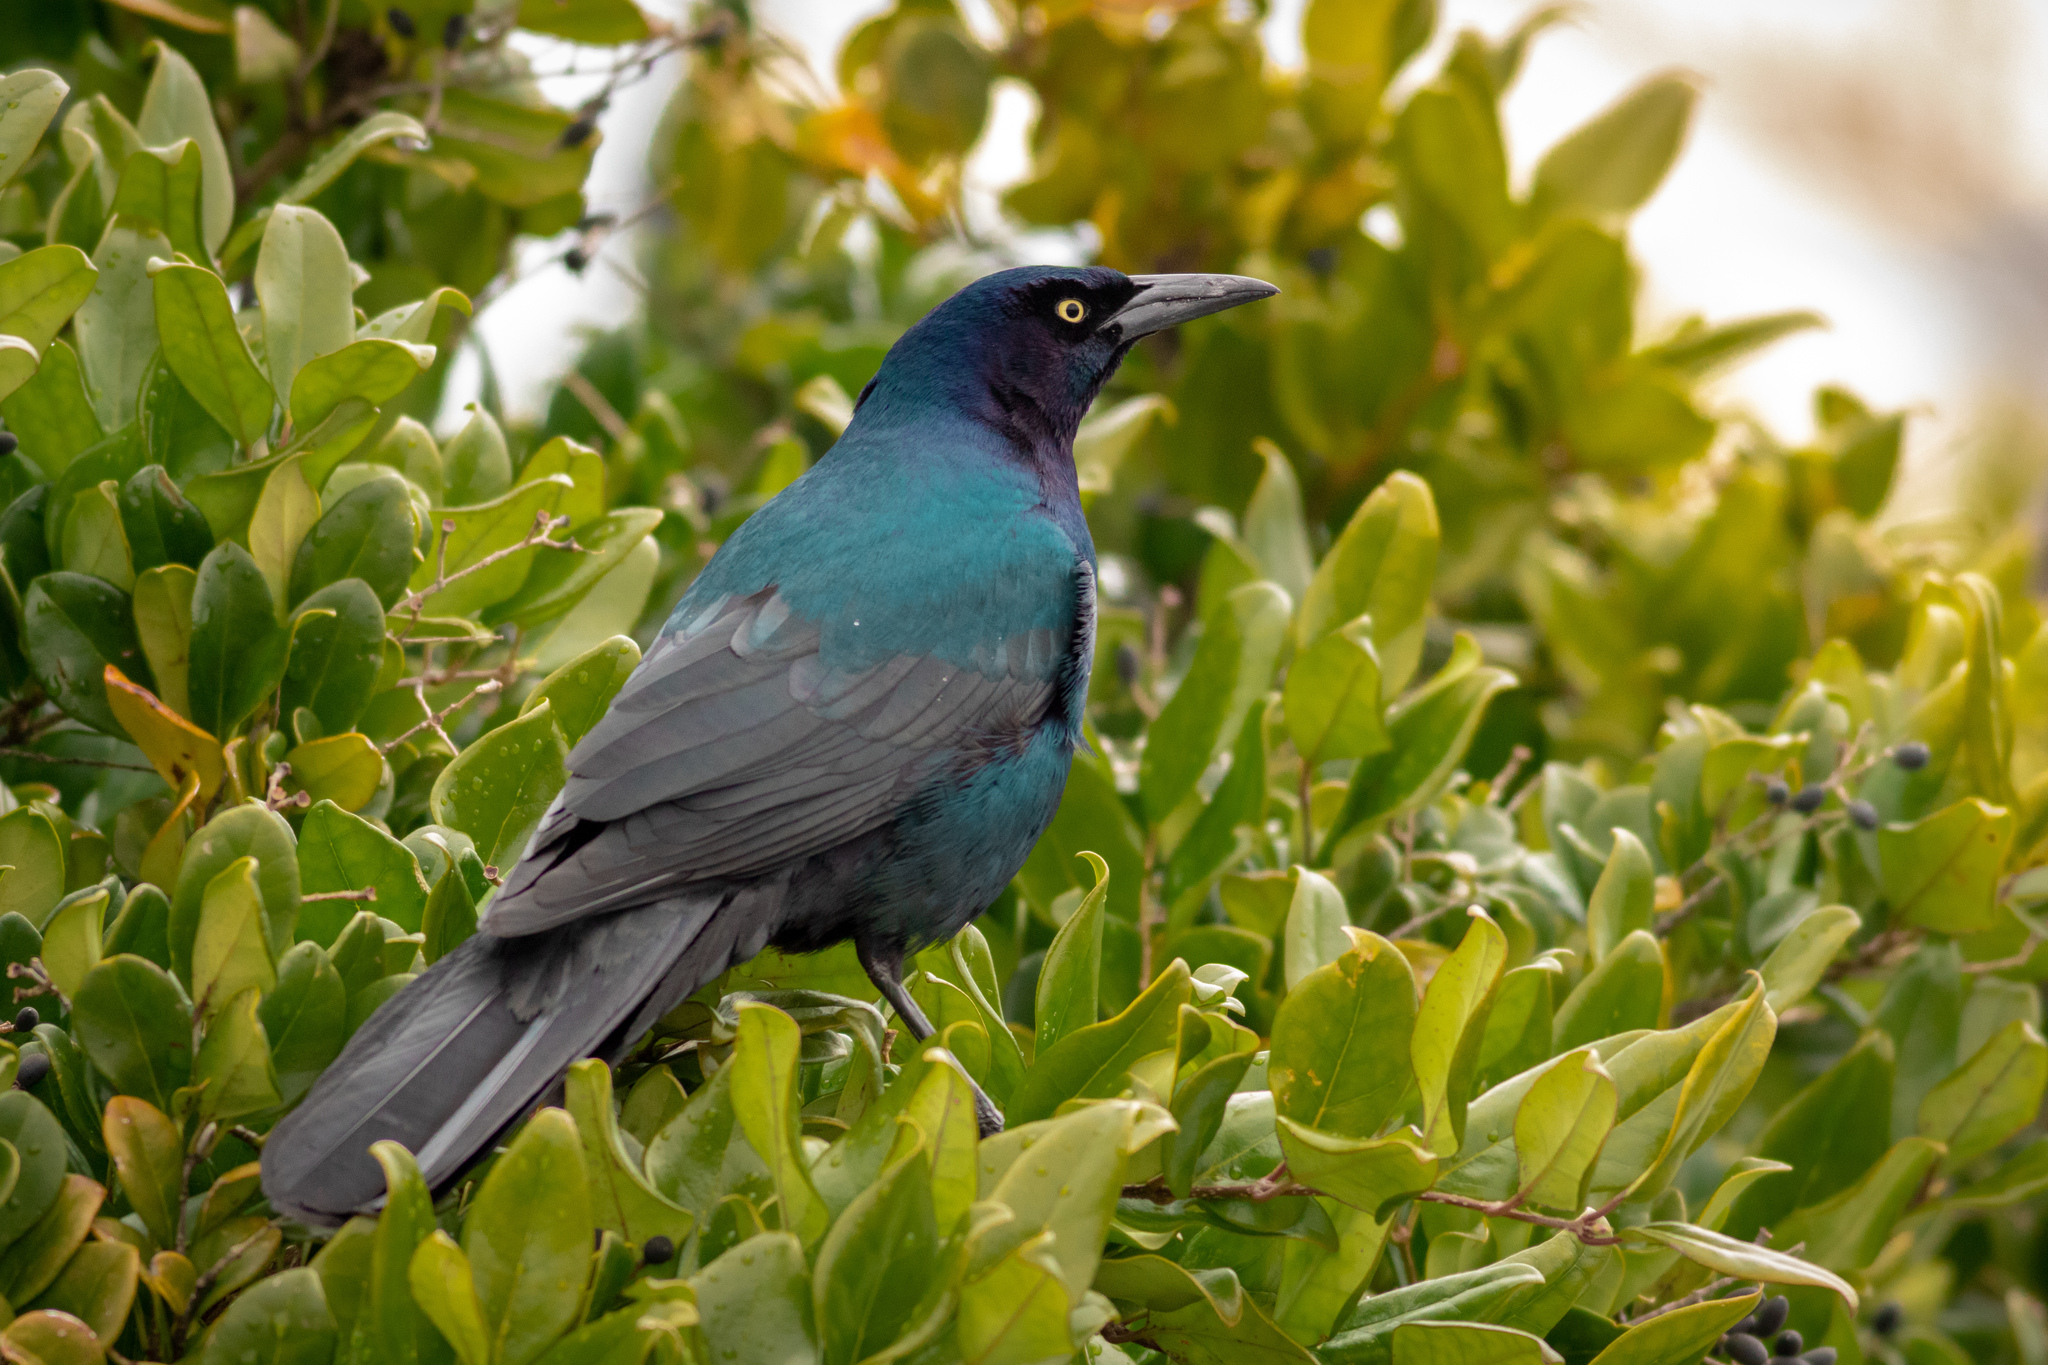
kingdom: Animalia
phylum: Chordata
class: Aves
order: Passeriformes
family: Icteridae
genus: Quiscalus
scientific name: Quiscalus major
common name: Boat-tailed grackle
